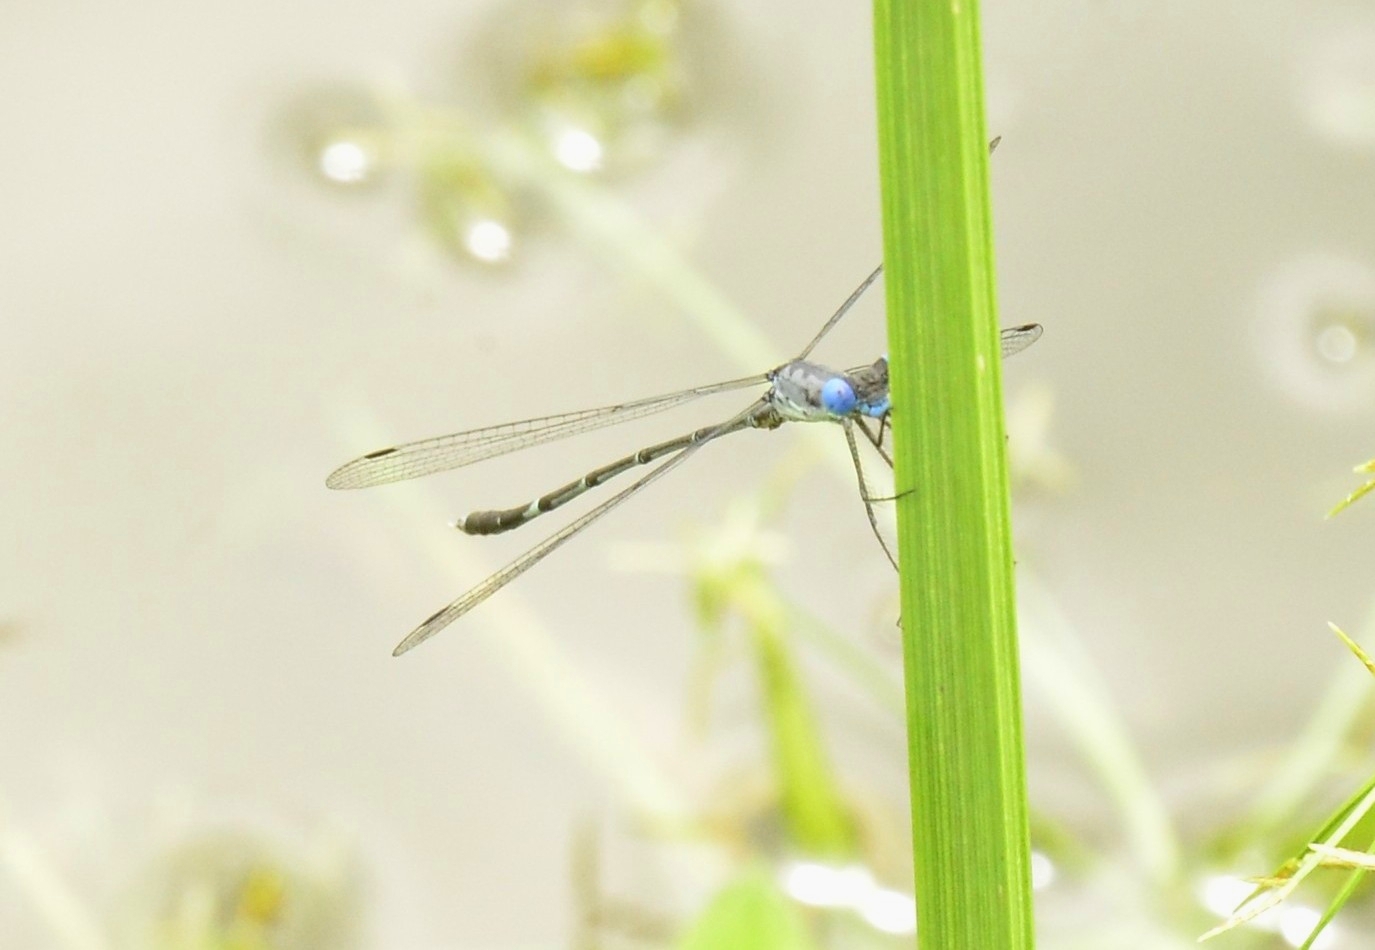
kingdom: Animalia
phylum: Arthropoda
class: Insecta
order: Odonata
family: Lestidae
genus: Lestes
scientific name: Lestes praemorsus
